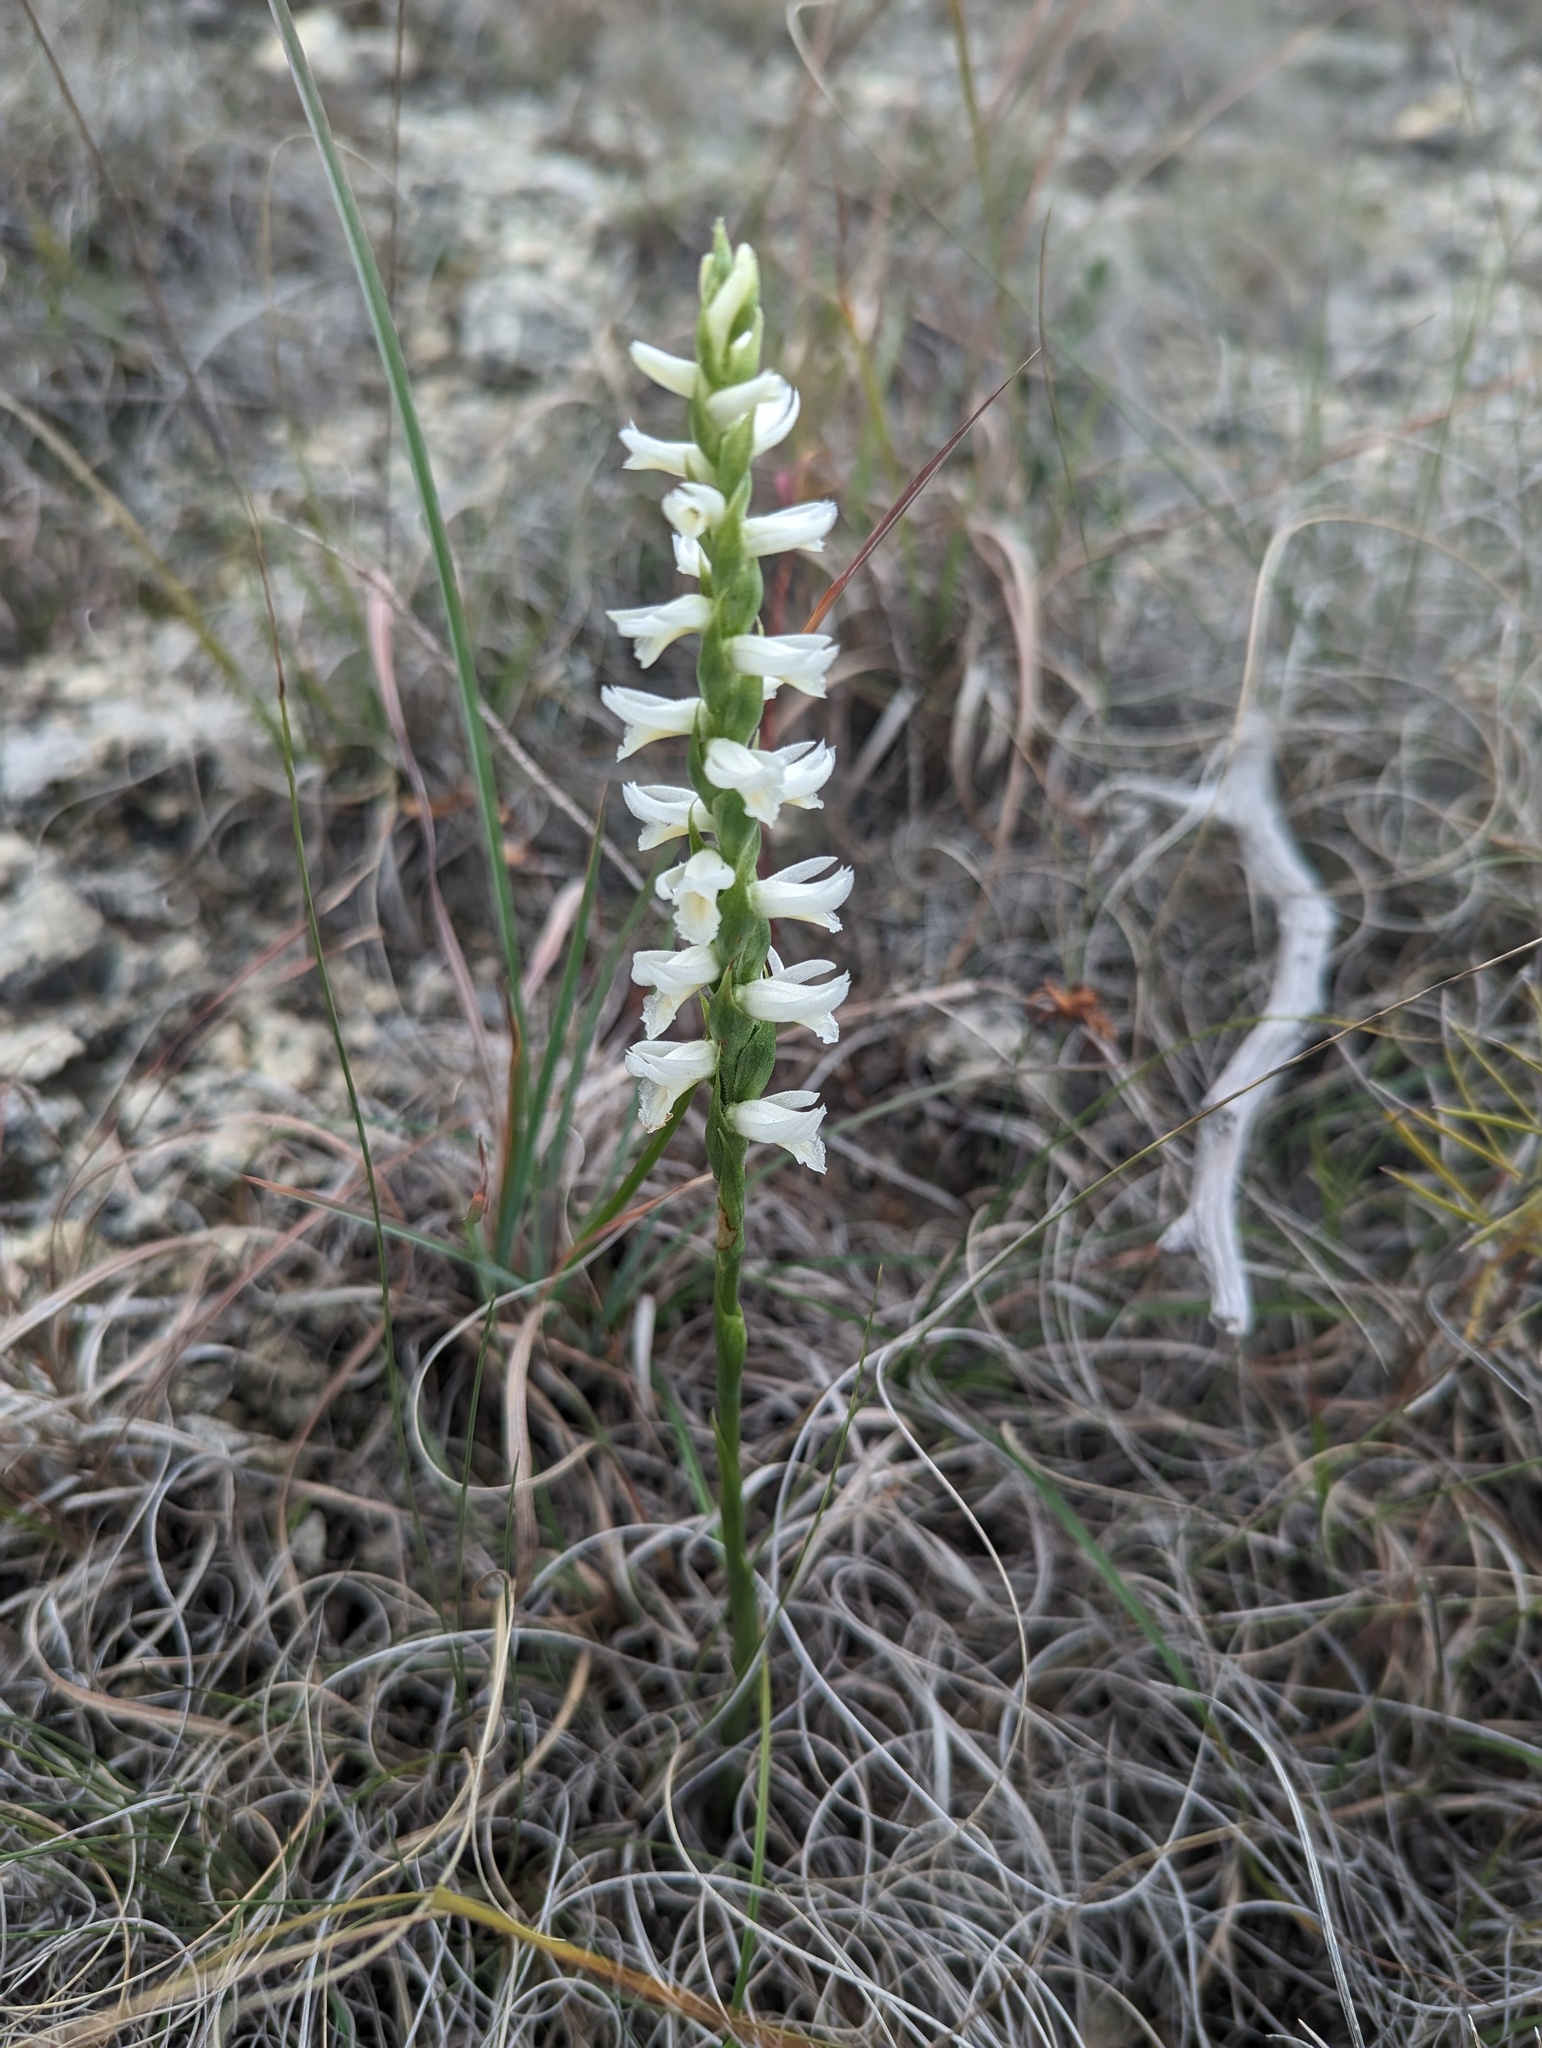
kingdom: Plantae
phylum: Tracheophyta
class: Liliopsida
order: Asparagales
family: Orchidaceae
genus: Spiranthes
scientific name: Spiranthes magnicamporum
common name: Great plains ladies'-tresses
